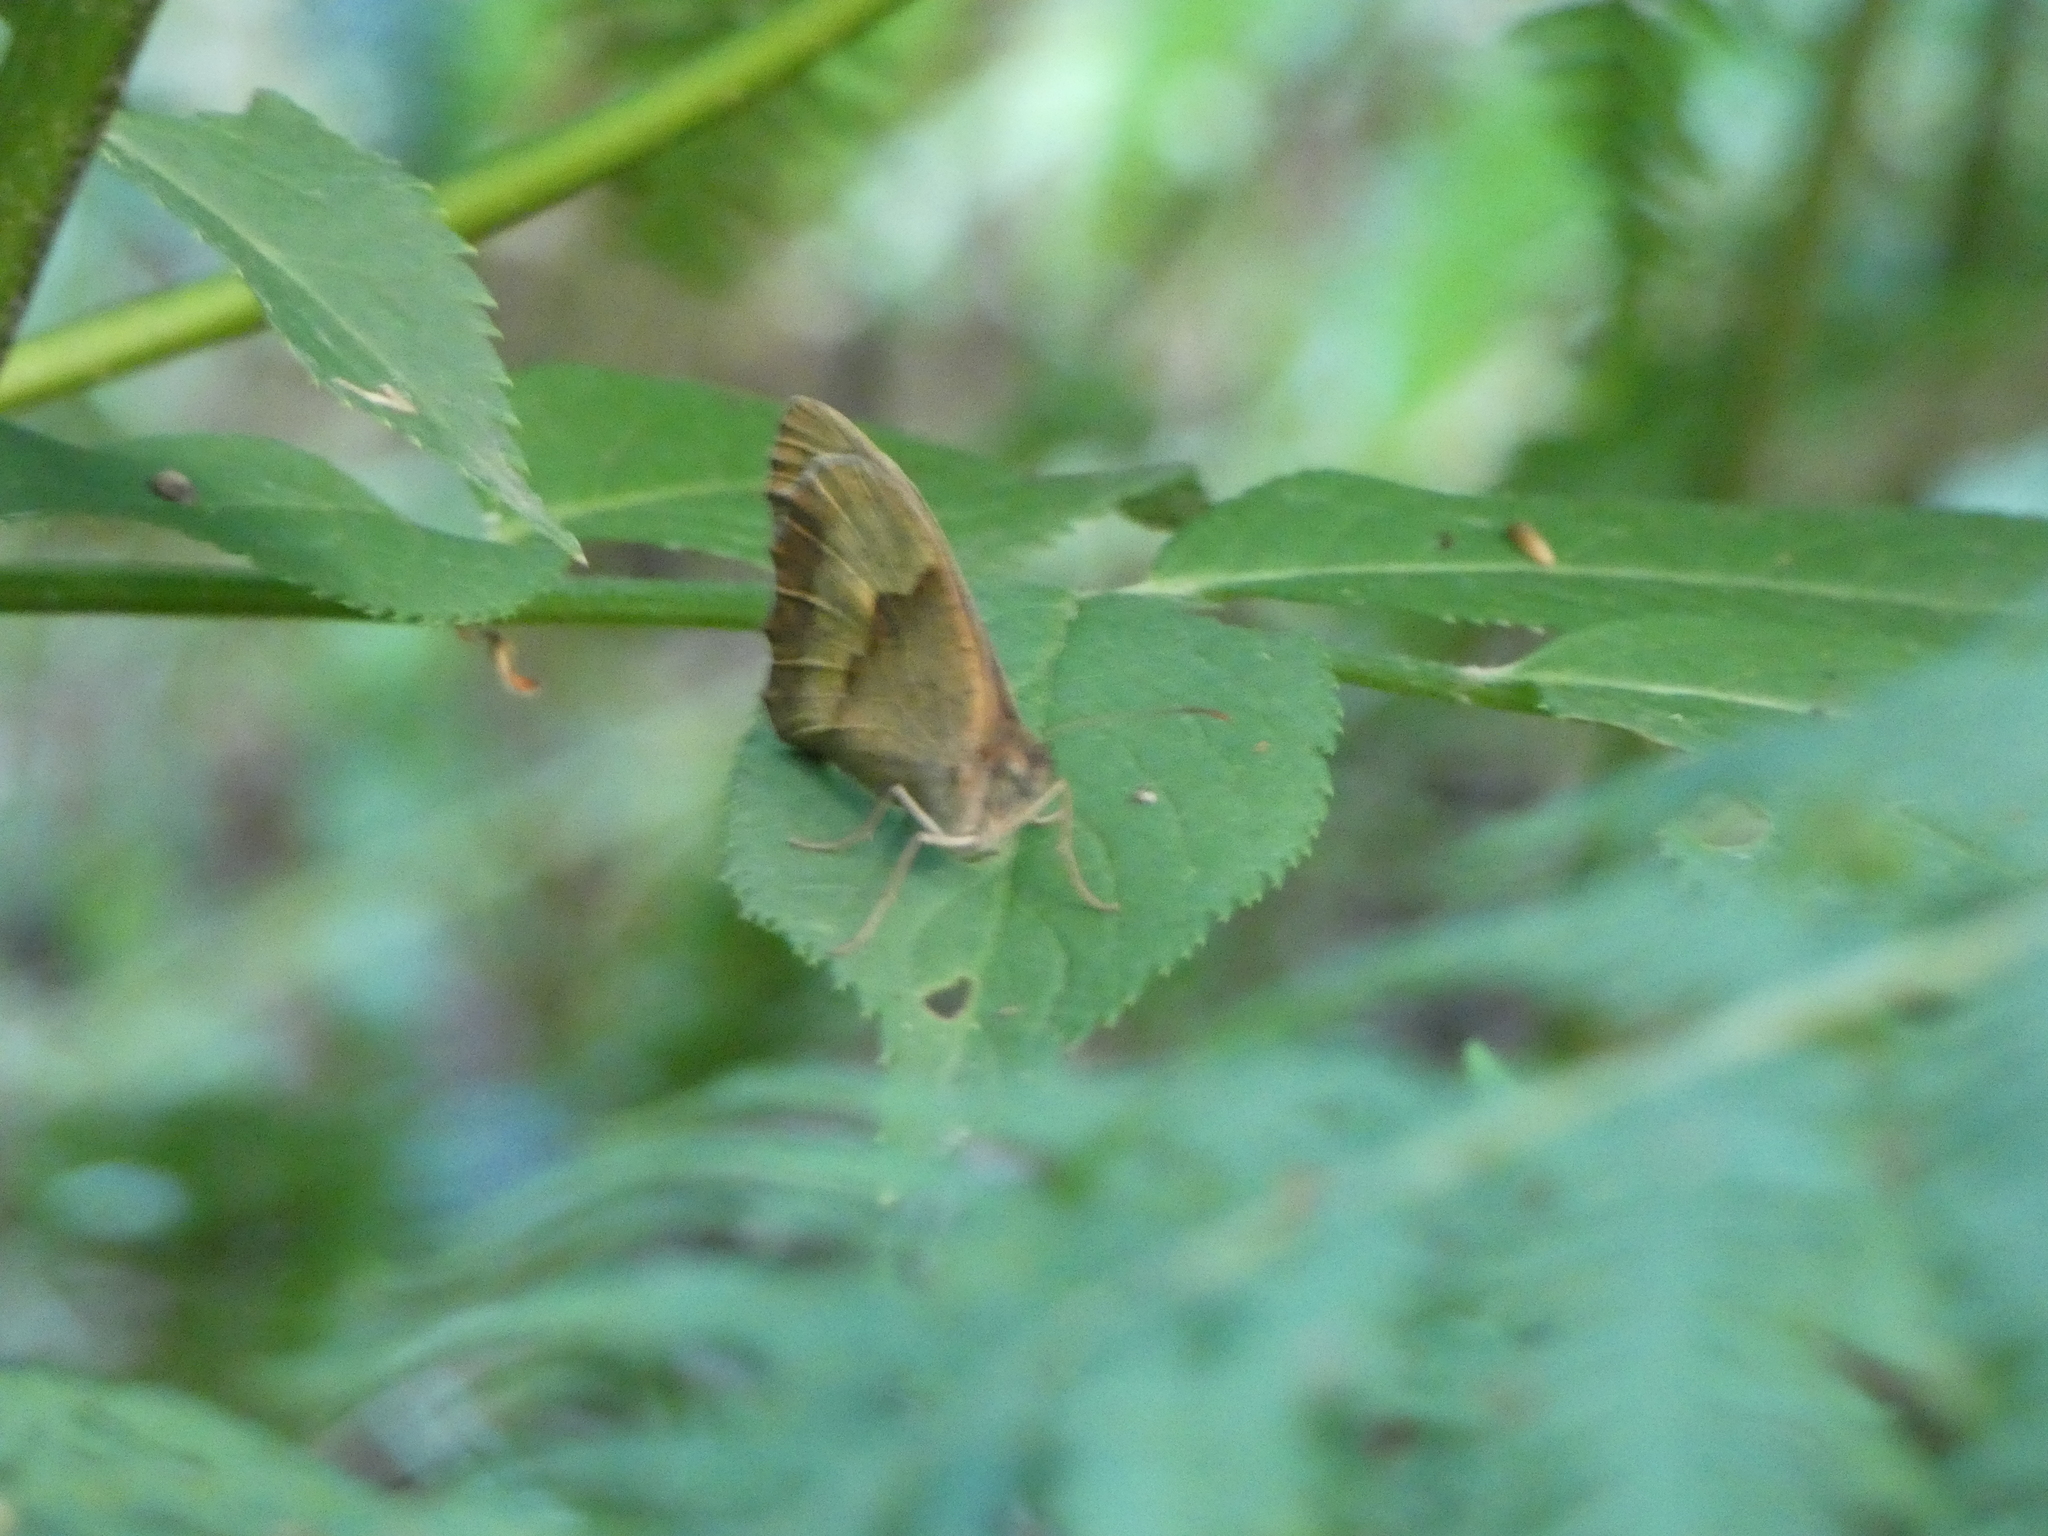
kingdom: Animalia
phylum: Arthropoda
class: Insecta
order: Lepidoptera
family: Nymphalidae
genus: Maniola
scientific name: Maniola jurtina
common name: Meadow brown
